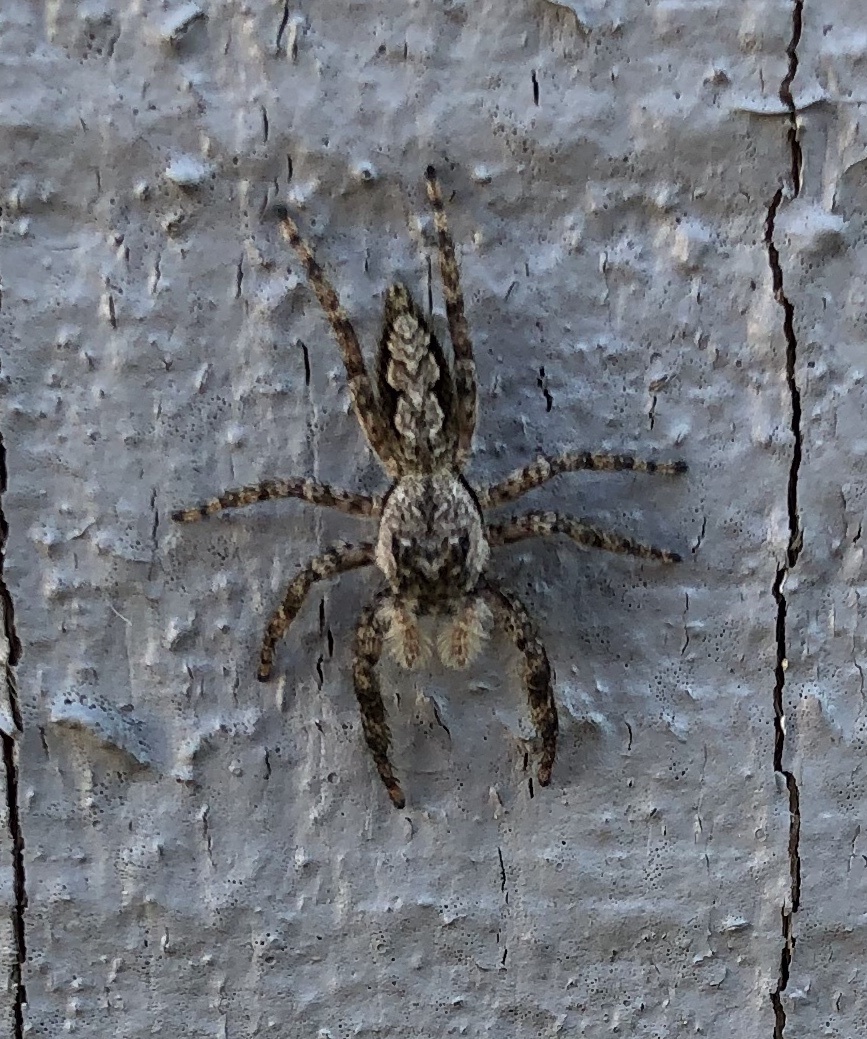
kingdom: Animalia
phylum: Arthropoda
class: Arachnida
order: Araneae
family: Salticidae
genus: Platycryptus
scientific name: Platycryptus undatus
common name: Tan jumping spider
